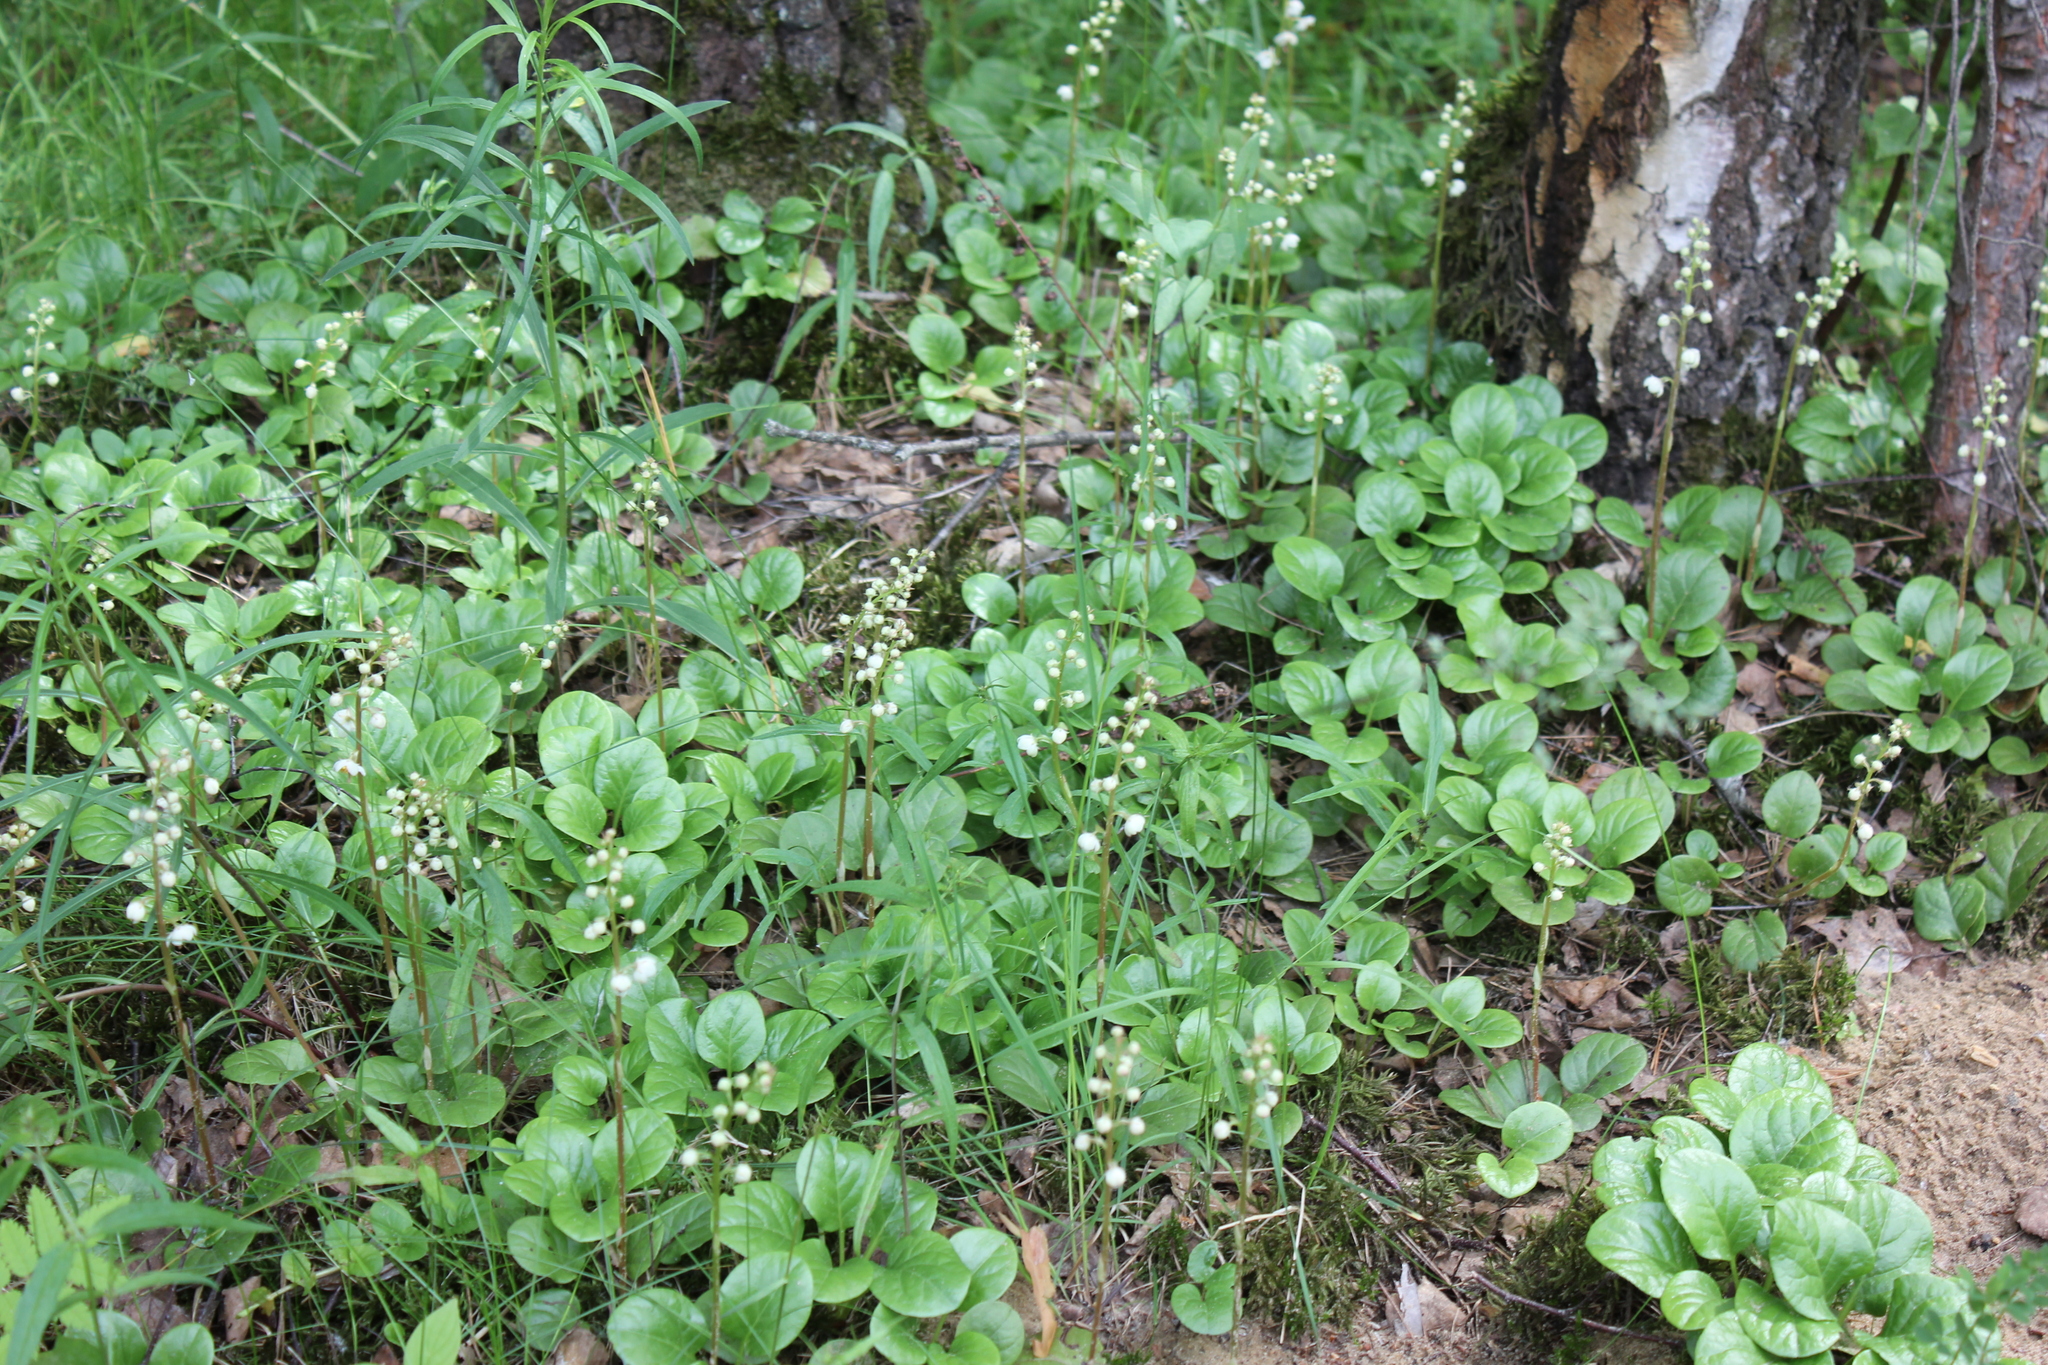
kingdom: Plantae
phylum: Tracheophyta
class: Magnoliopsida
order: Ericales
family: Ericaceae
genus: Pyrola
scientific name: Pyrola rotundifolia
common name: Round-leaved wintergreen
